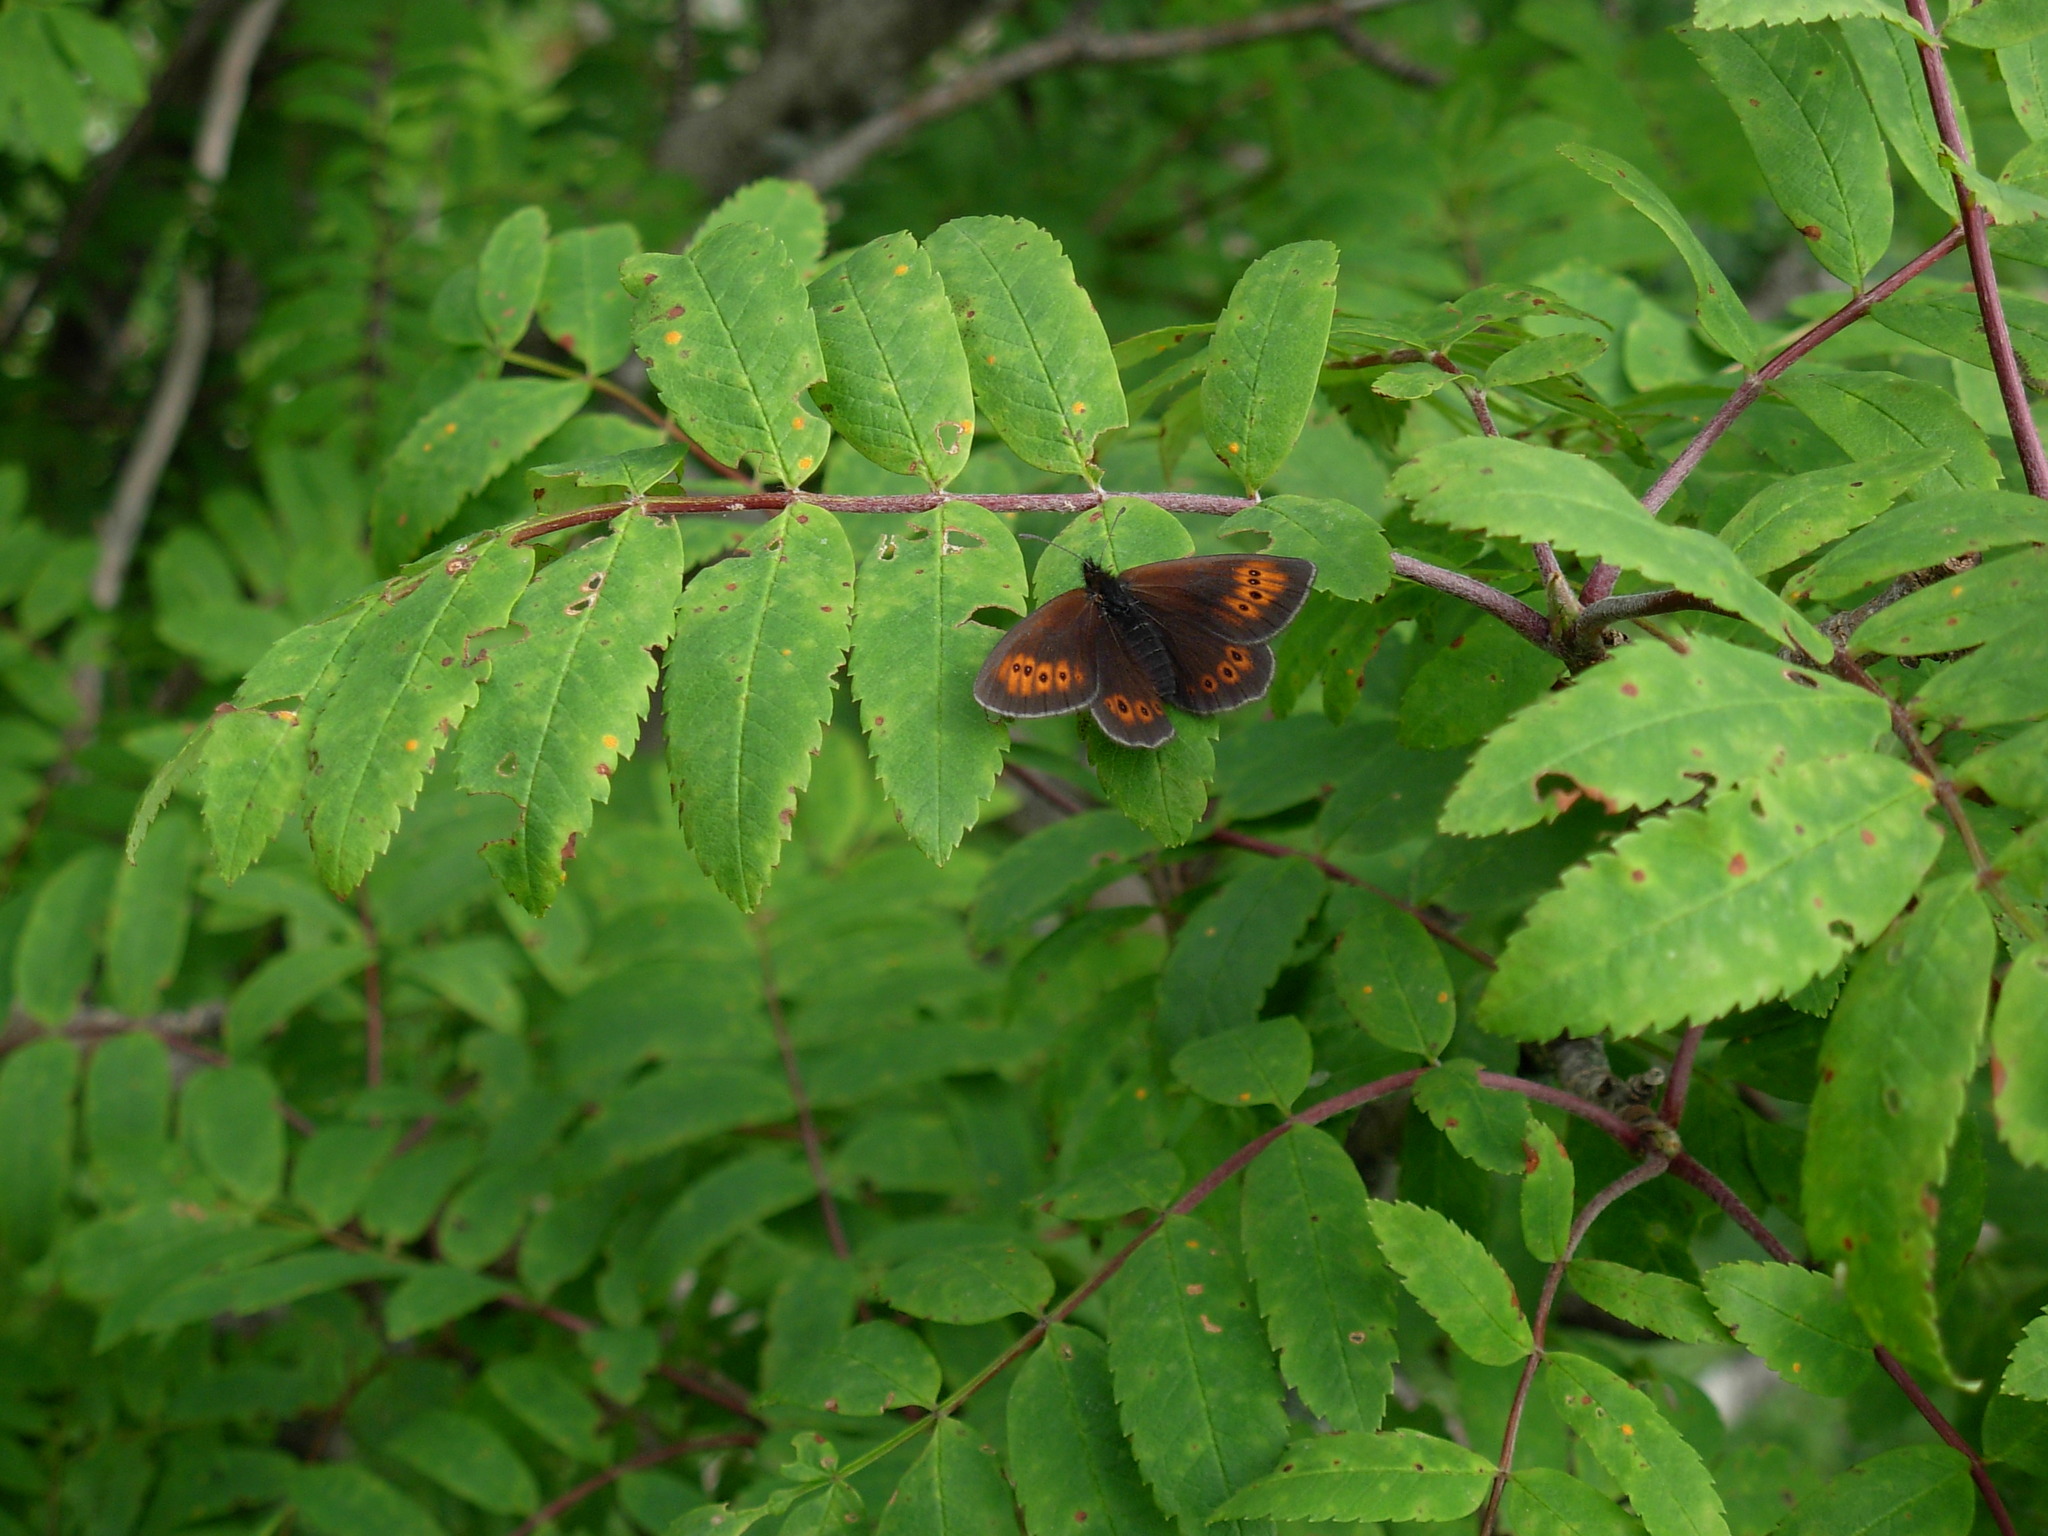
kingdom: Animalia
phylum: Arthropoda
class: Insecta
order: Lepidoptera
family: Nymphalidae
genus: Erebia
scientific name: Erebia epiphron
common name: Mountain ringlet
